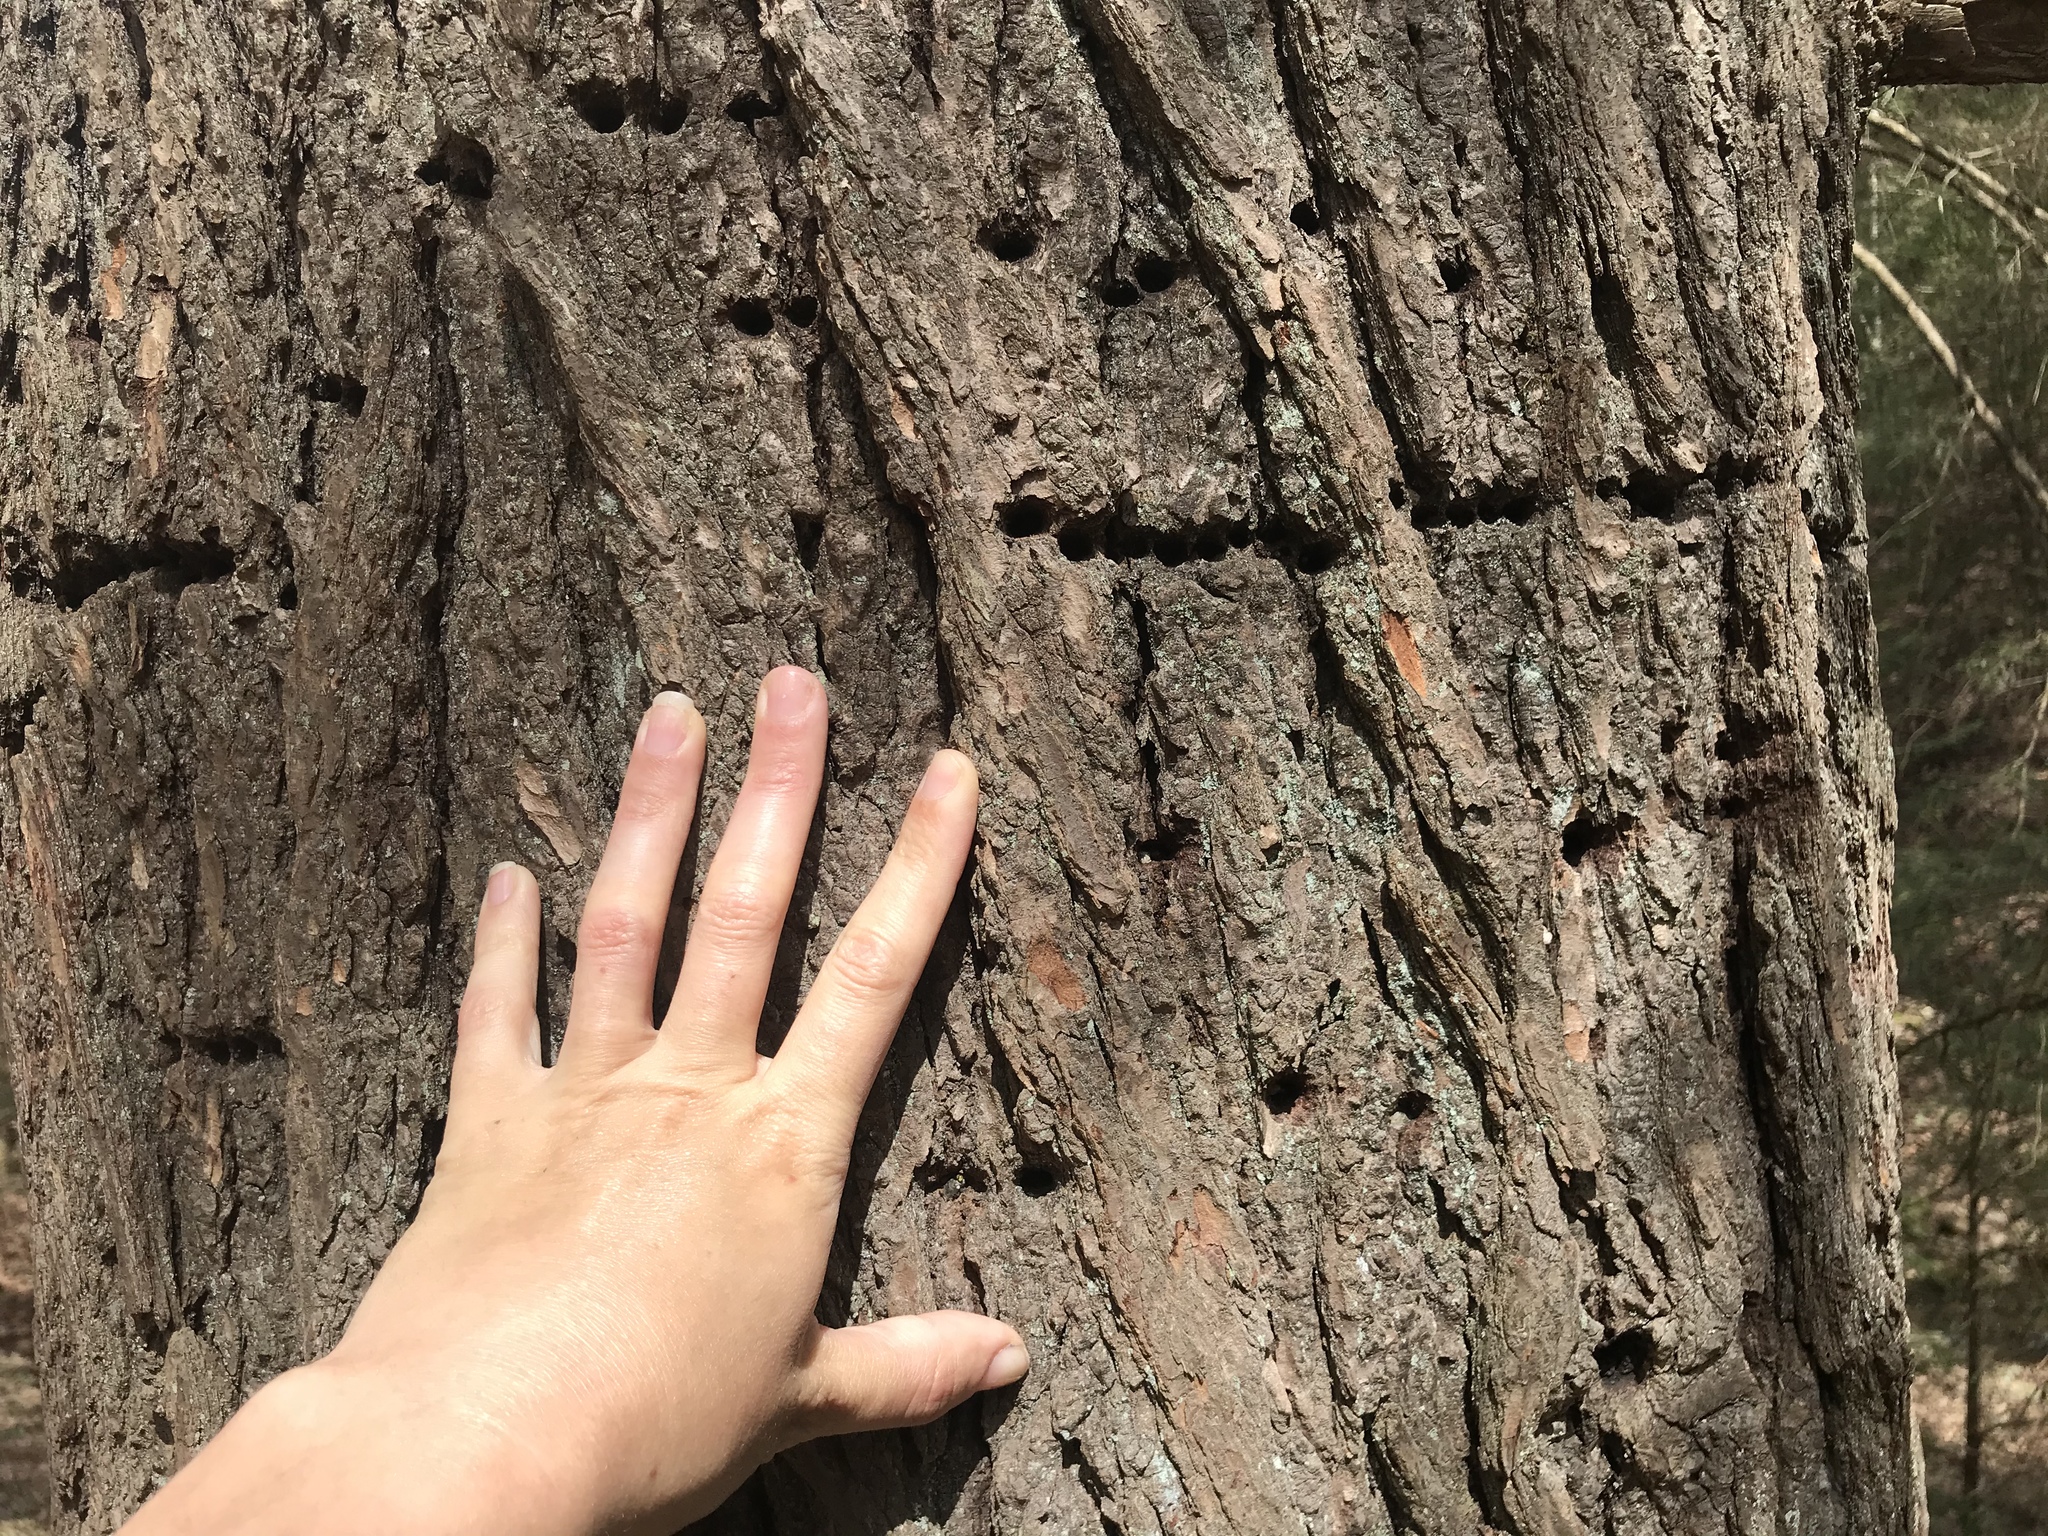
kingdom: Animalia
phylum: Chordata
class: Aves
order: Piciformes
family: Picidae
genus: Sphyrapicus
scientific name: Sphyrapicus varius
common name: Yellow-bellied sapsucker
